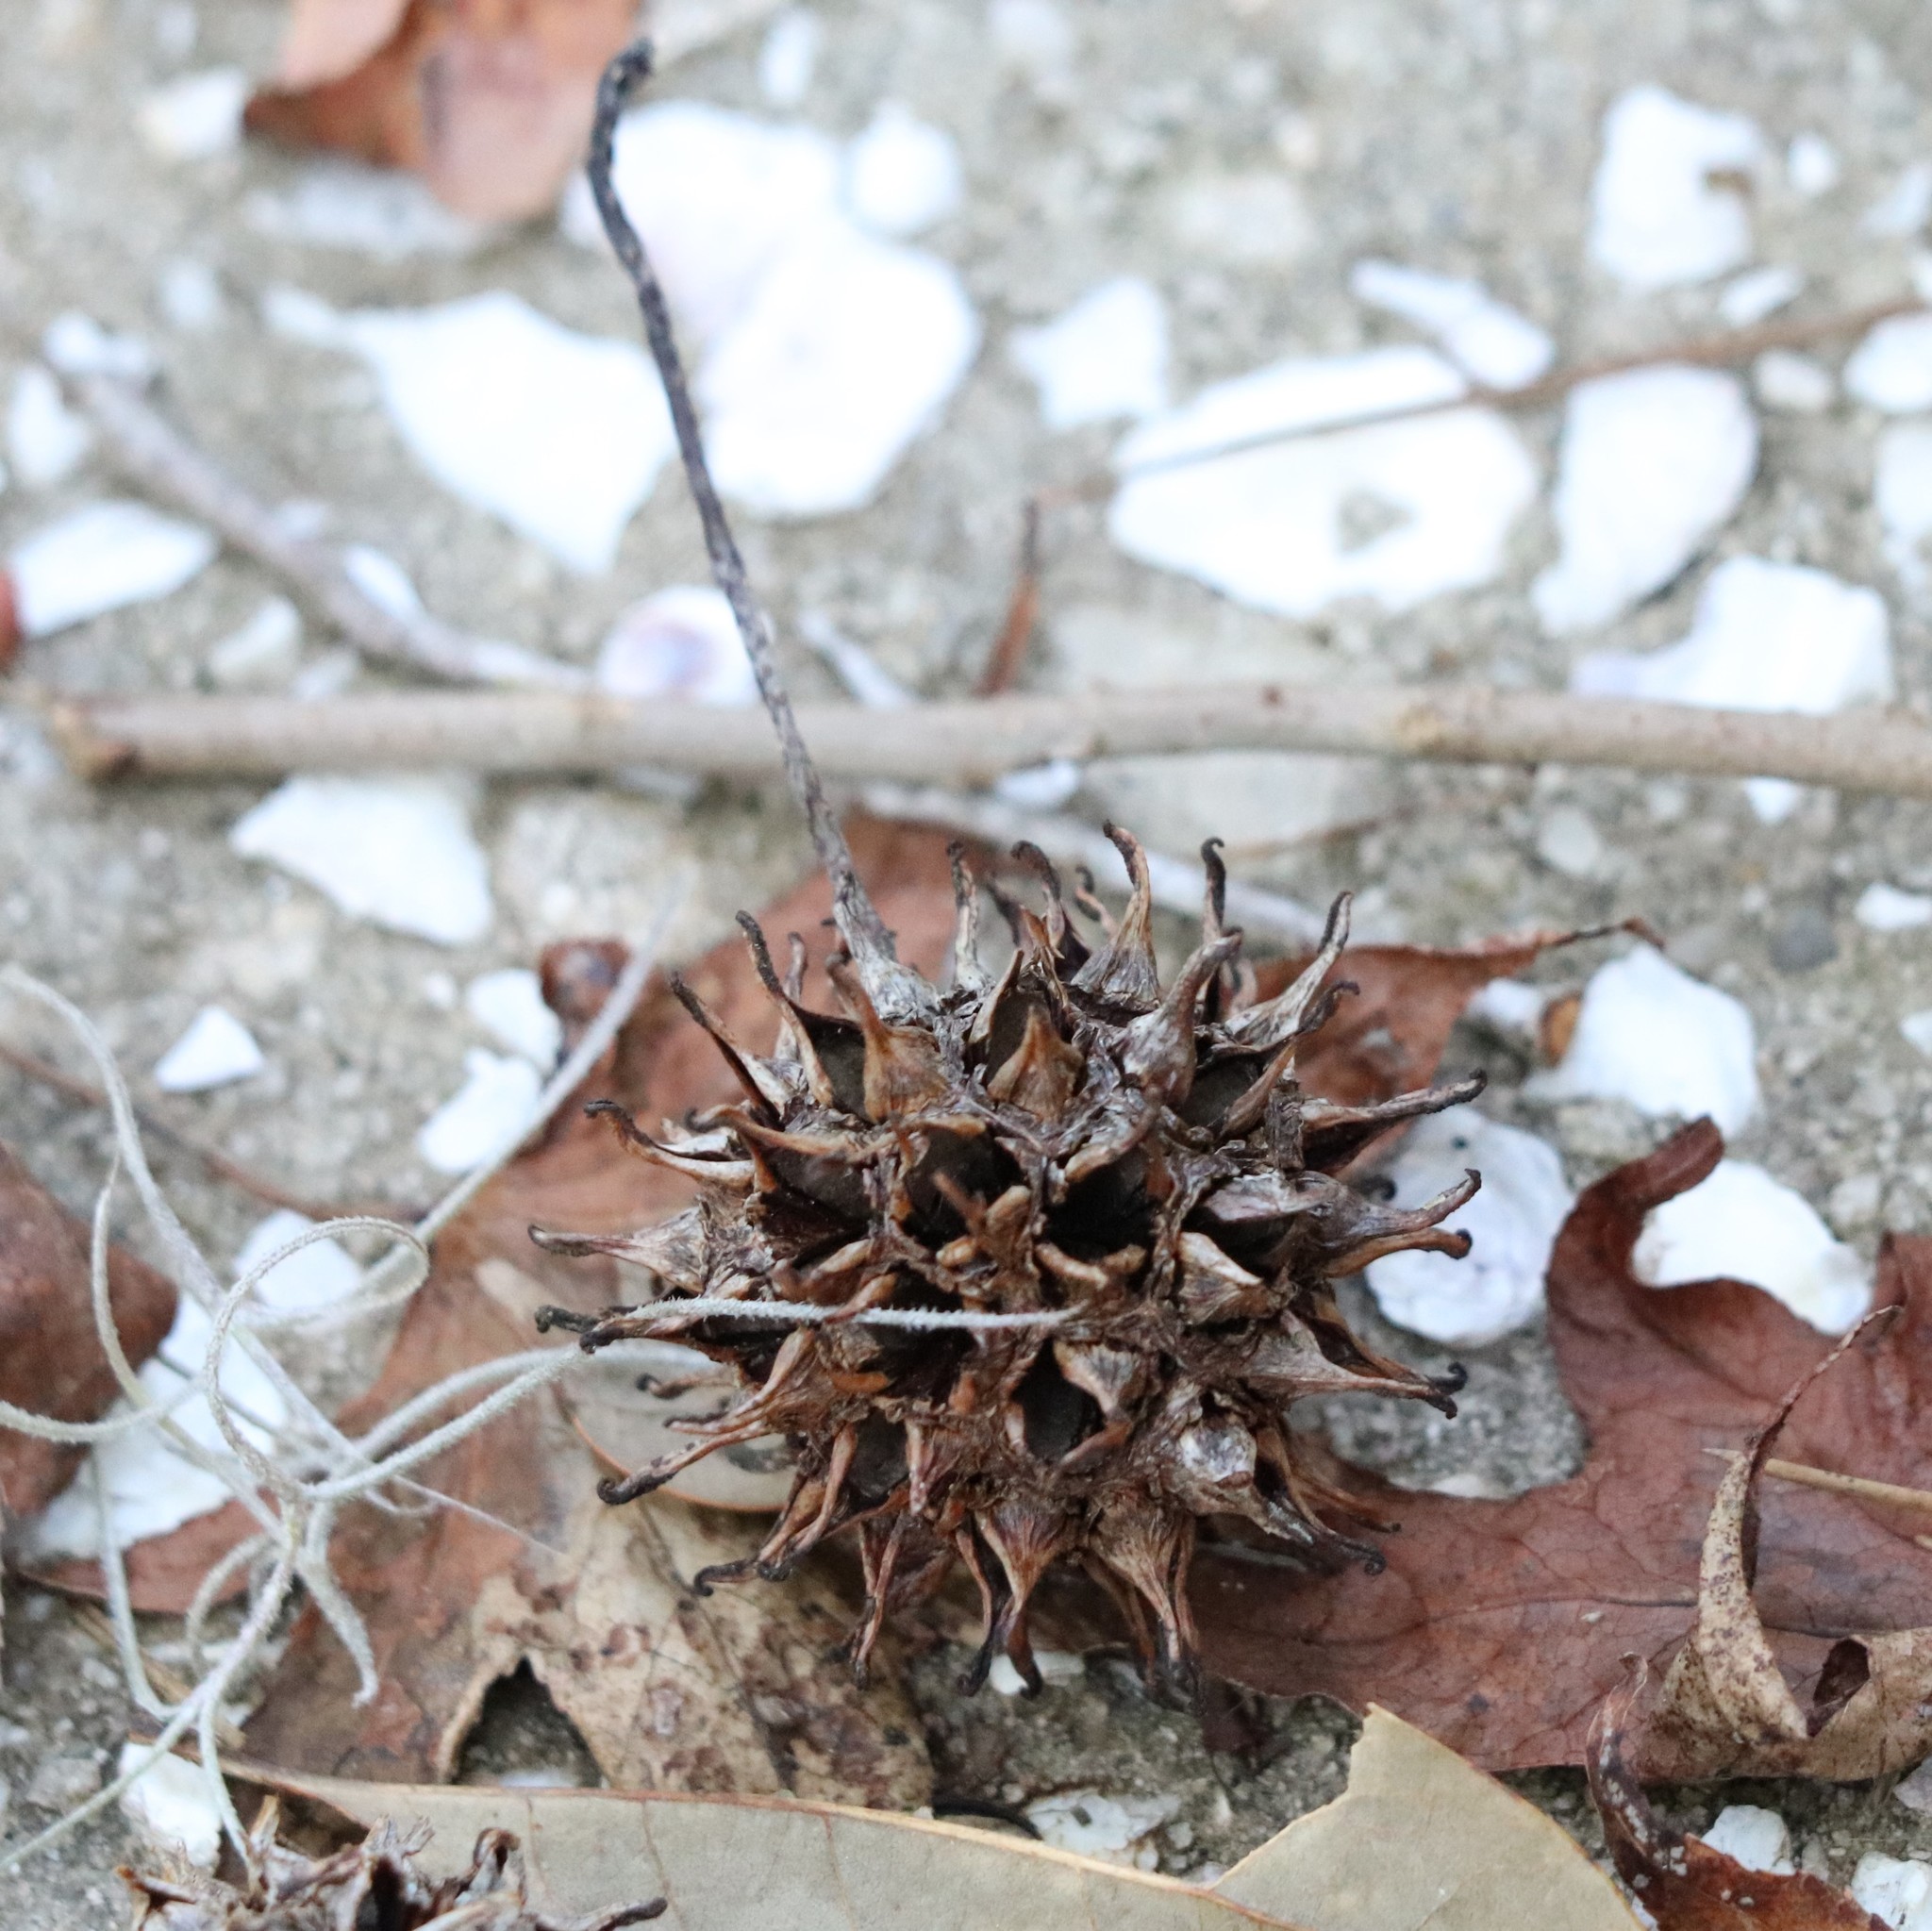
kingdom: Plantae
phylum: Tracheophyta
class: Magnoliopsida
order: Saxifragales
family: Altingiaceae
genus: Liquidambar
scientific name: Liquidambar styraciflua
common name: Sweet gum
